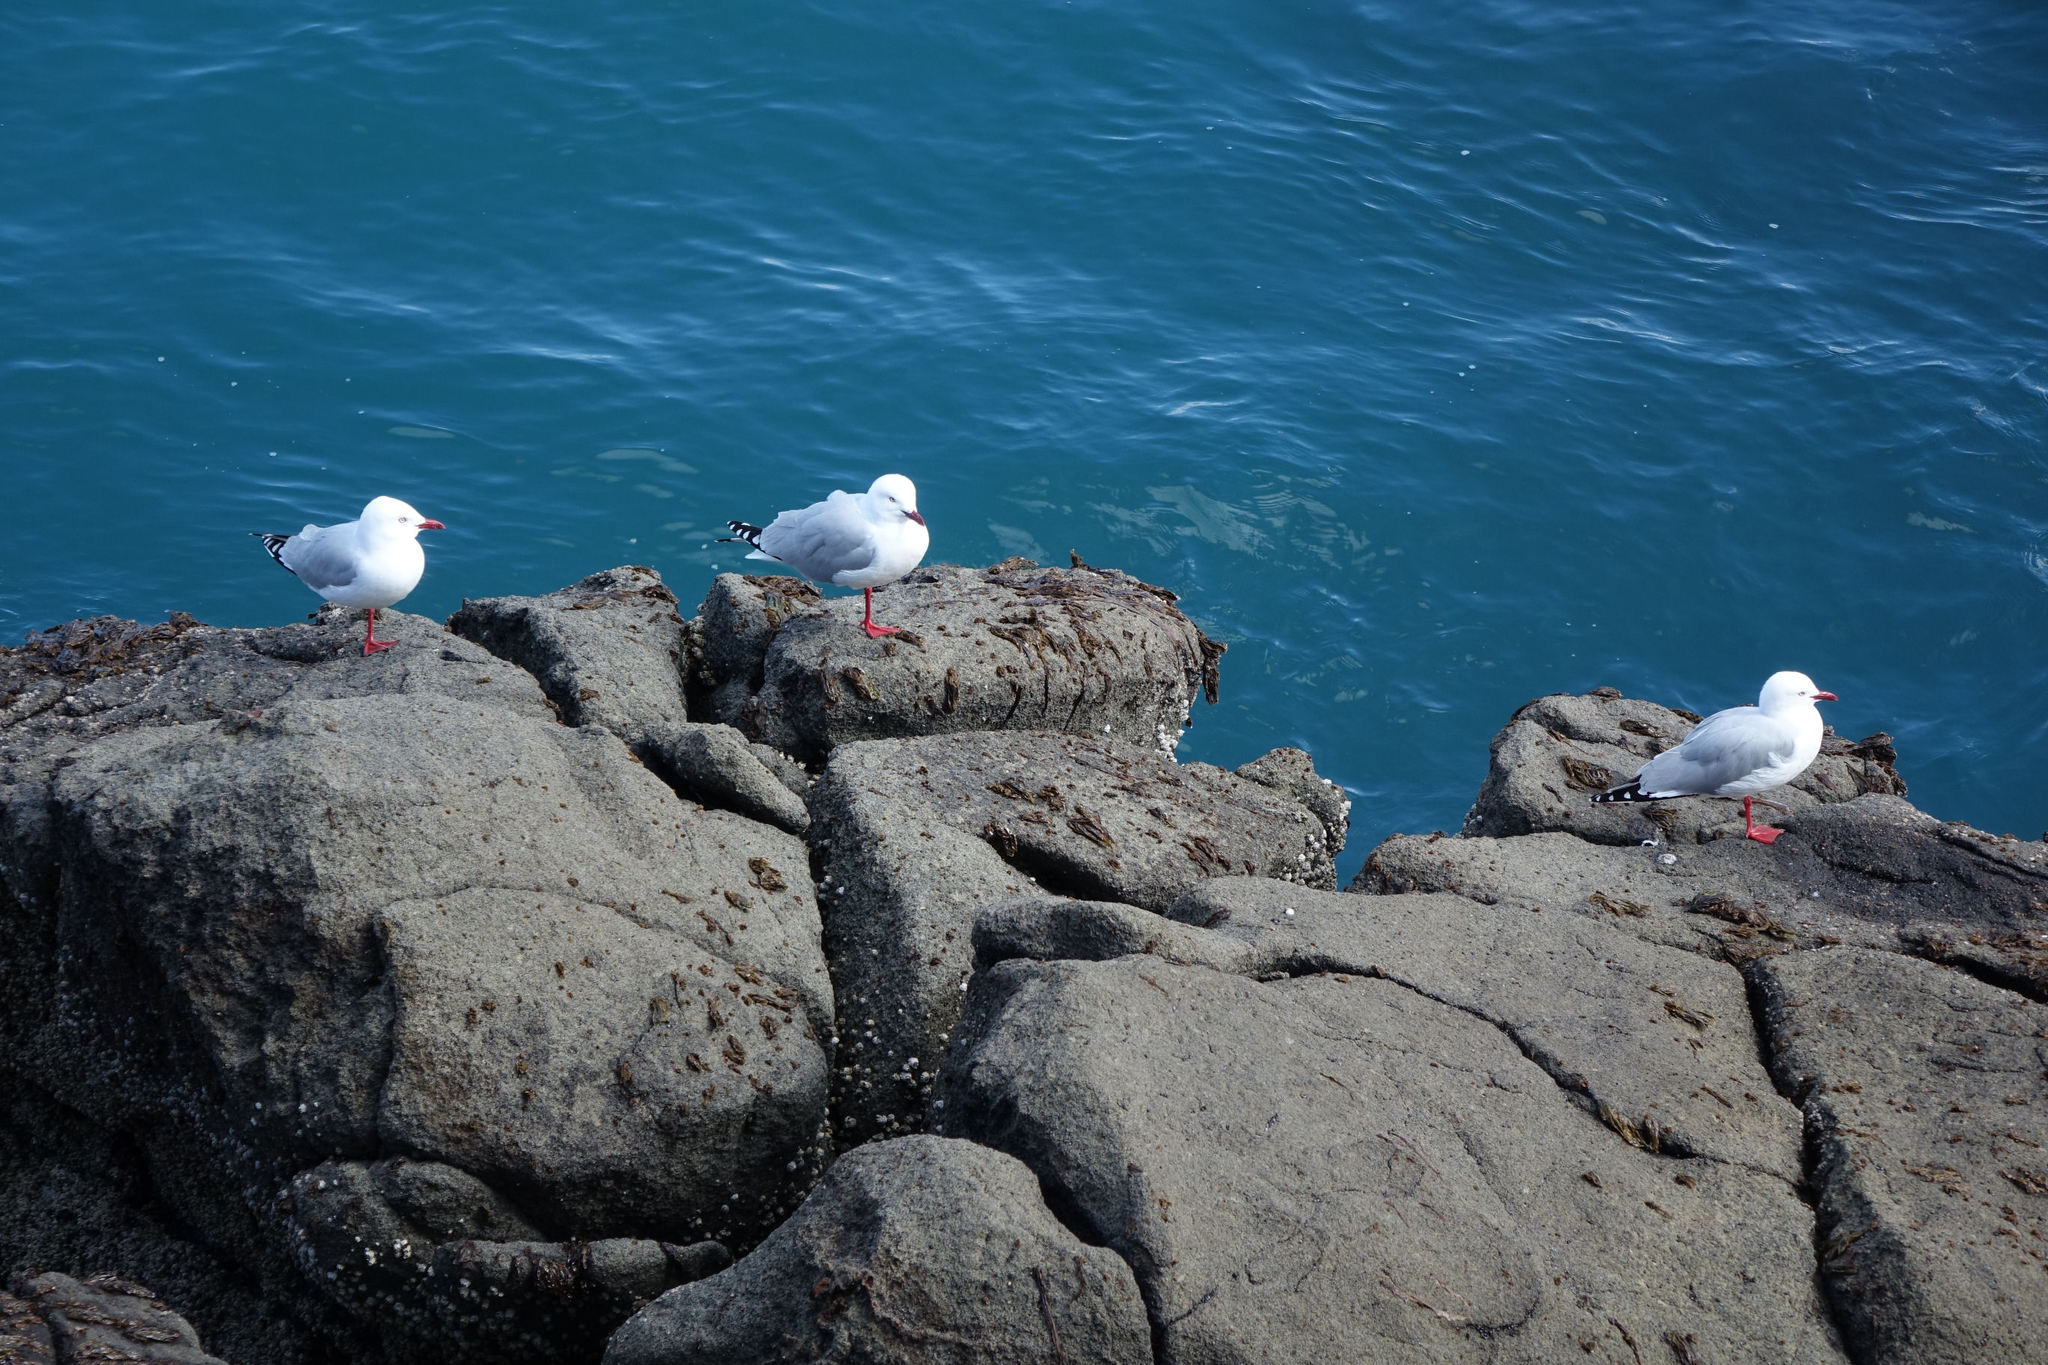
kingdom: Animalia
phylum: Chordata
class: Aves
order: Charadriiformes
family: Laridae
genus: Chroicocephalus
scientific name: Chroicocephalus novaehollandiae
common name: Silver gull
